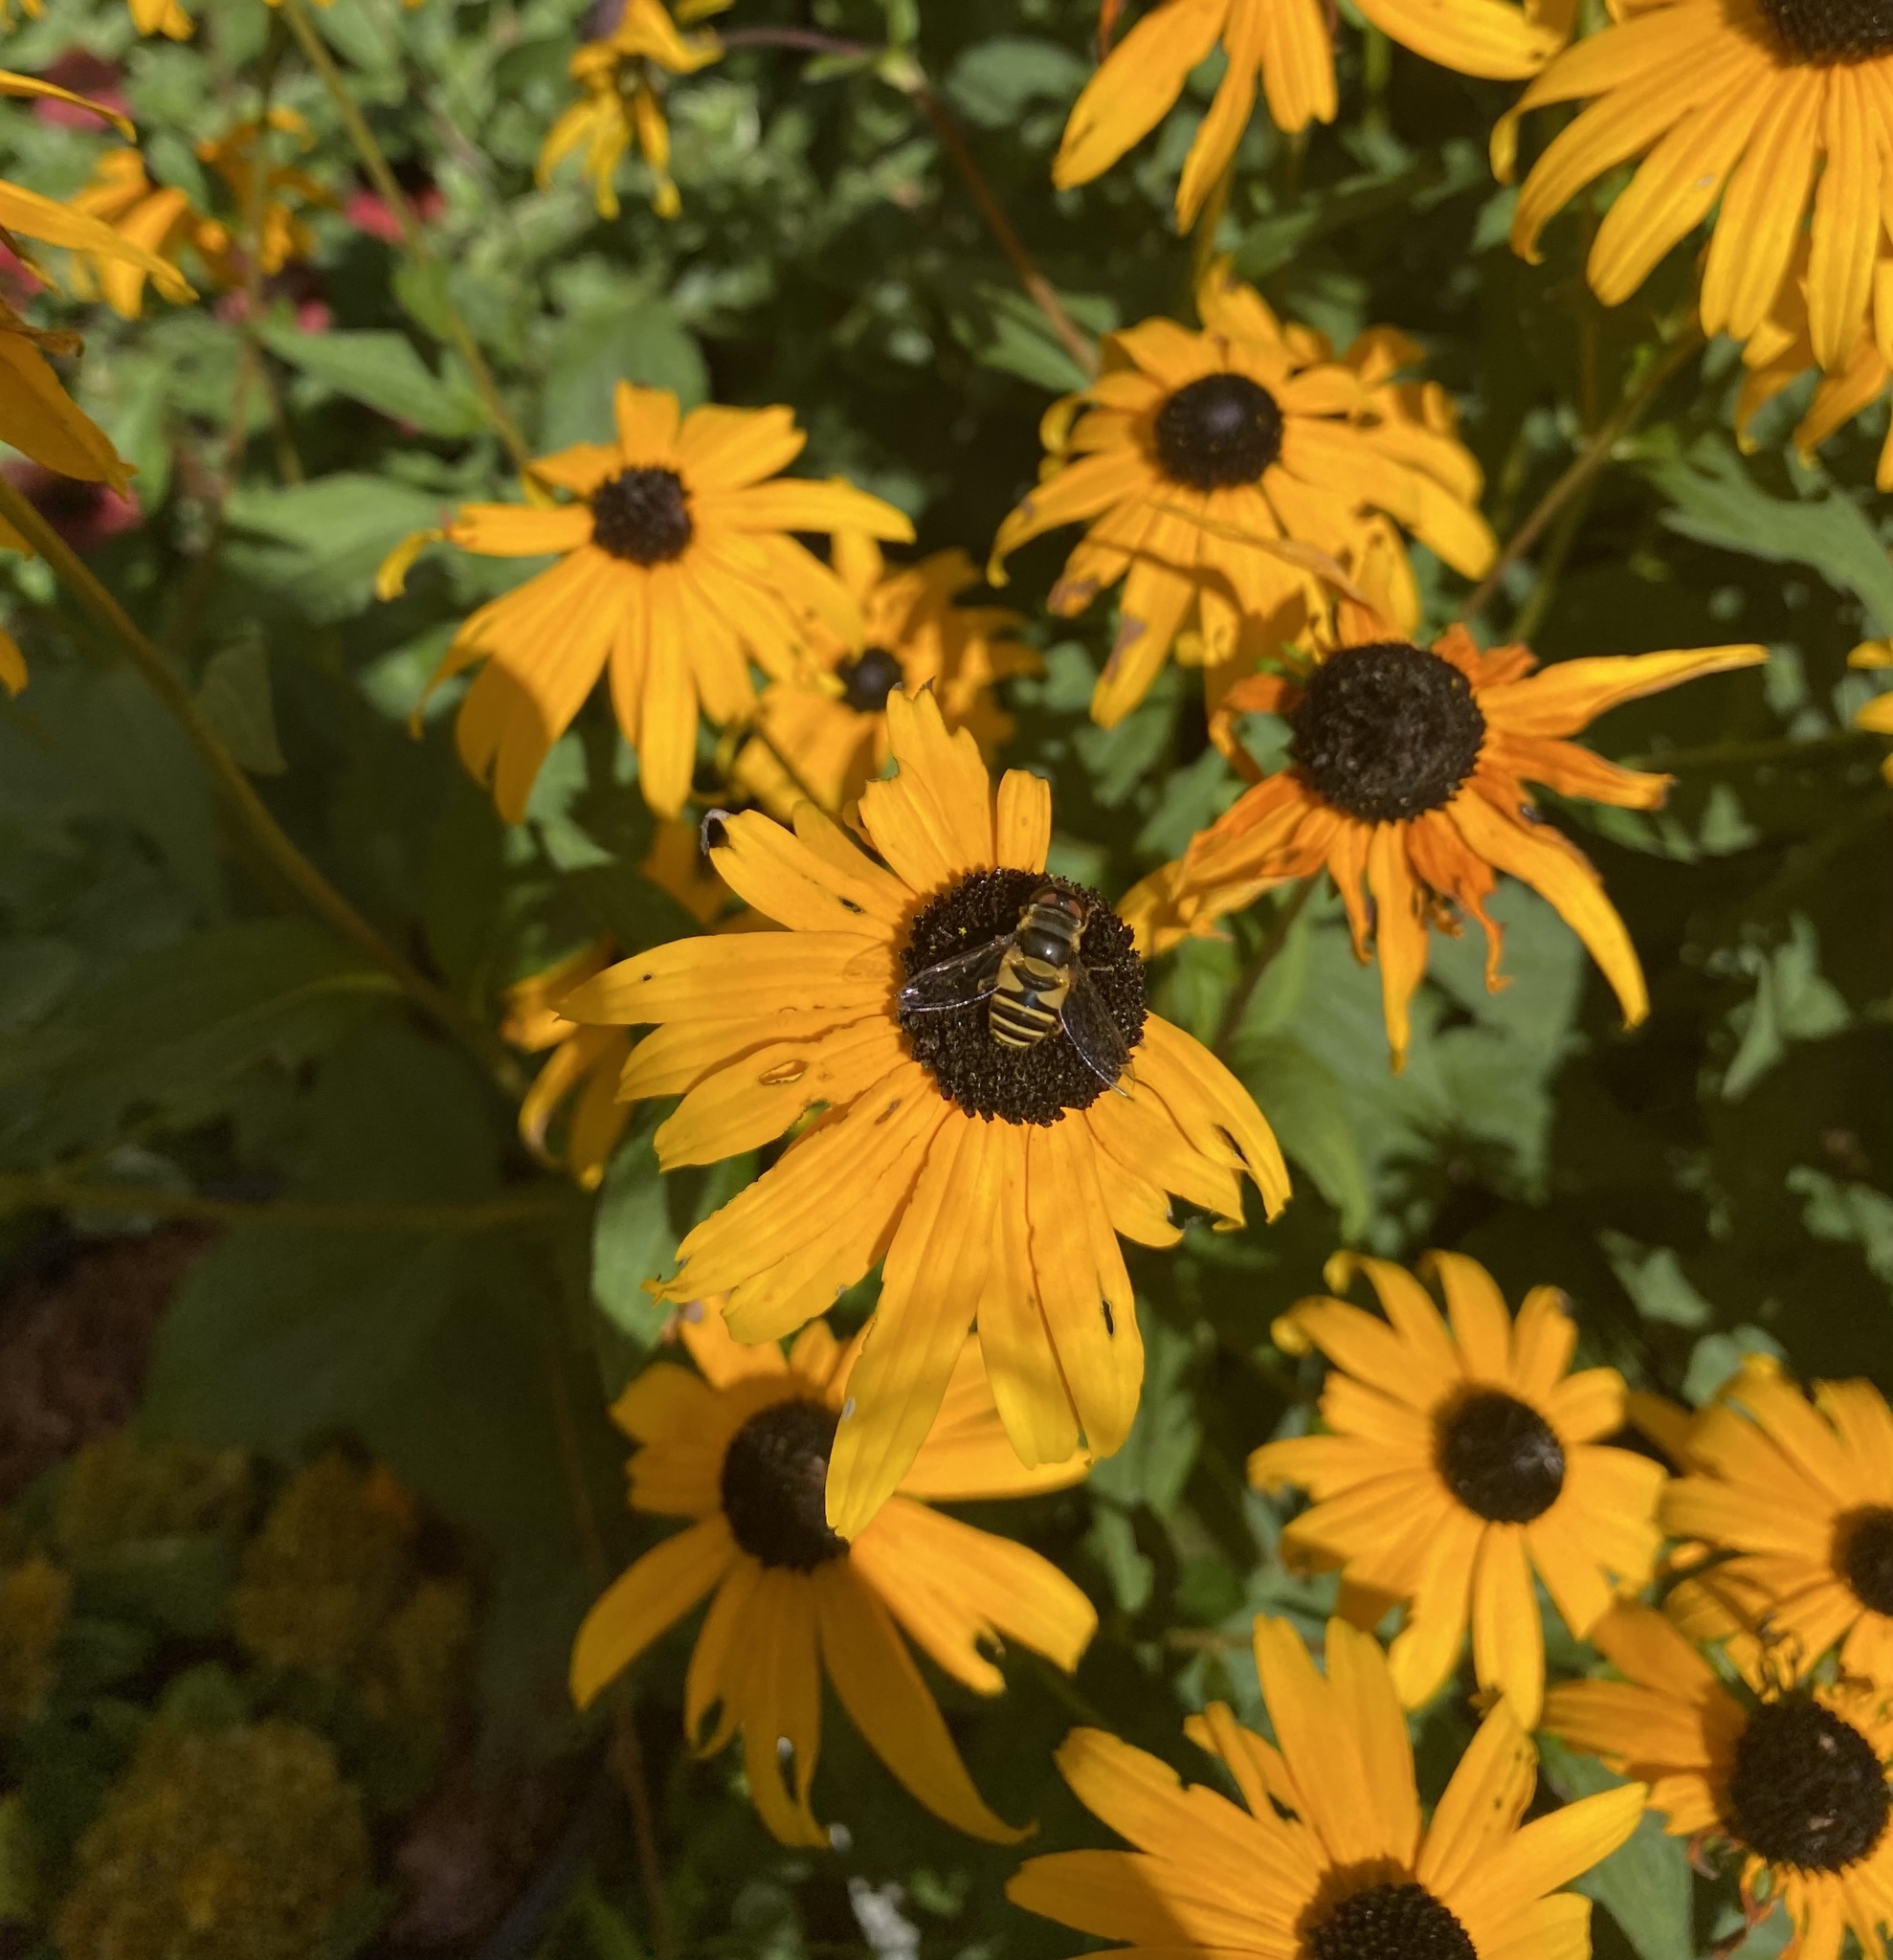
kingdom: Animalia
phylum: Arthropoda
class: Insecta
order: Diptera
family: Syrphidae
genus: Eristalis
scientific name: Eristalis transversa
